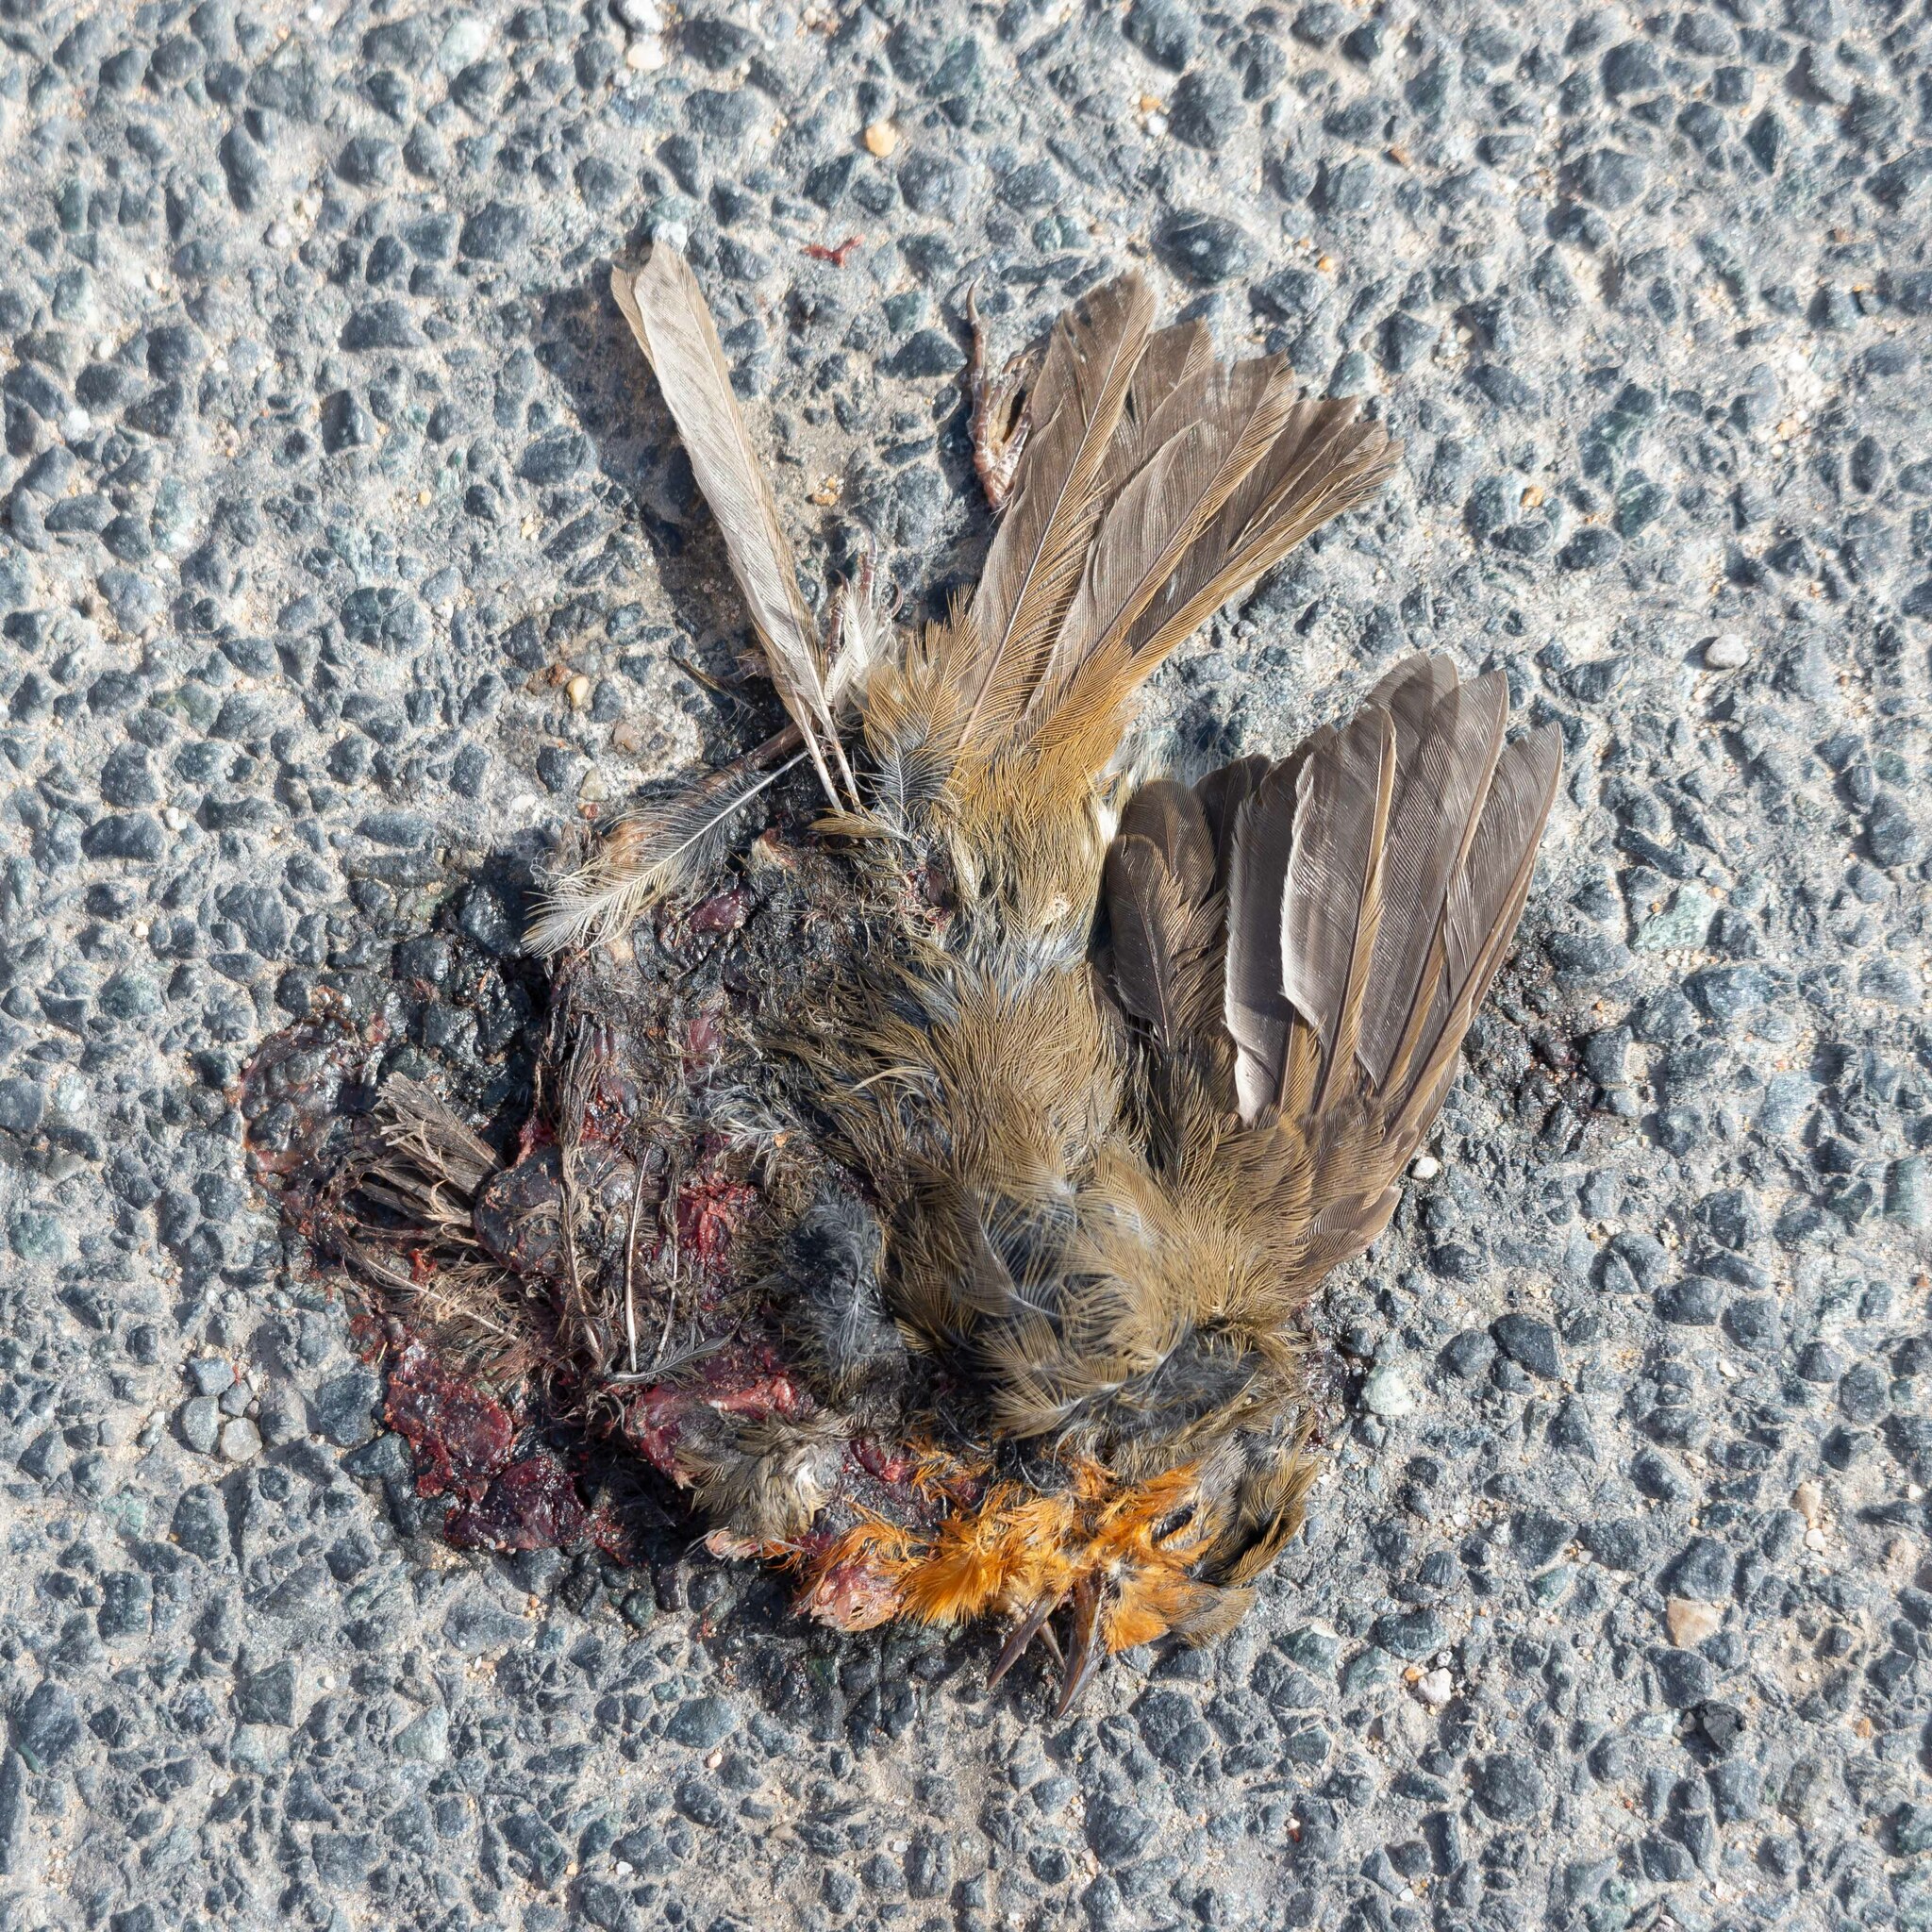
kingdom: Animalia
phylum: Chordata
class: Aves
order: Passeriformes
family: Muscicapidae
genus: Erithacus
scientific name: Erithacus rubecula
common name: European robin
